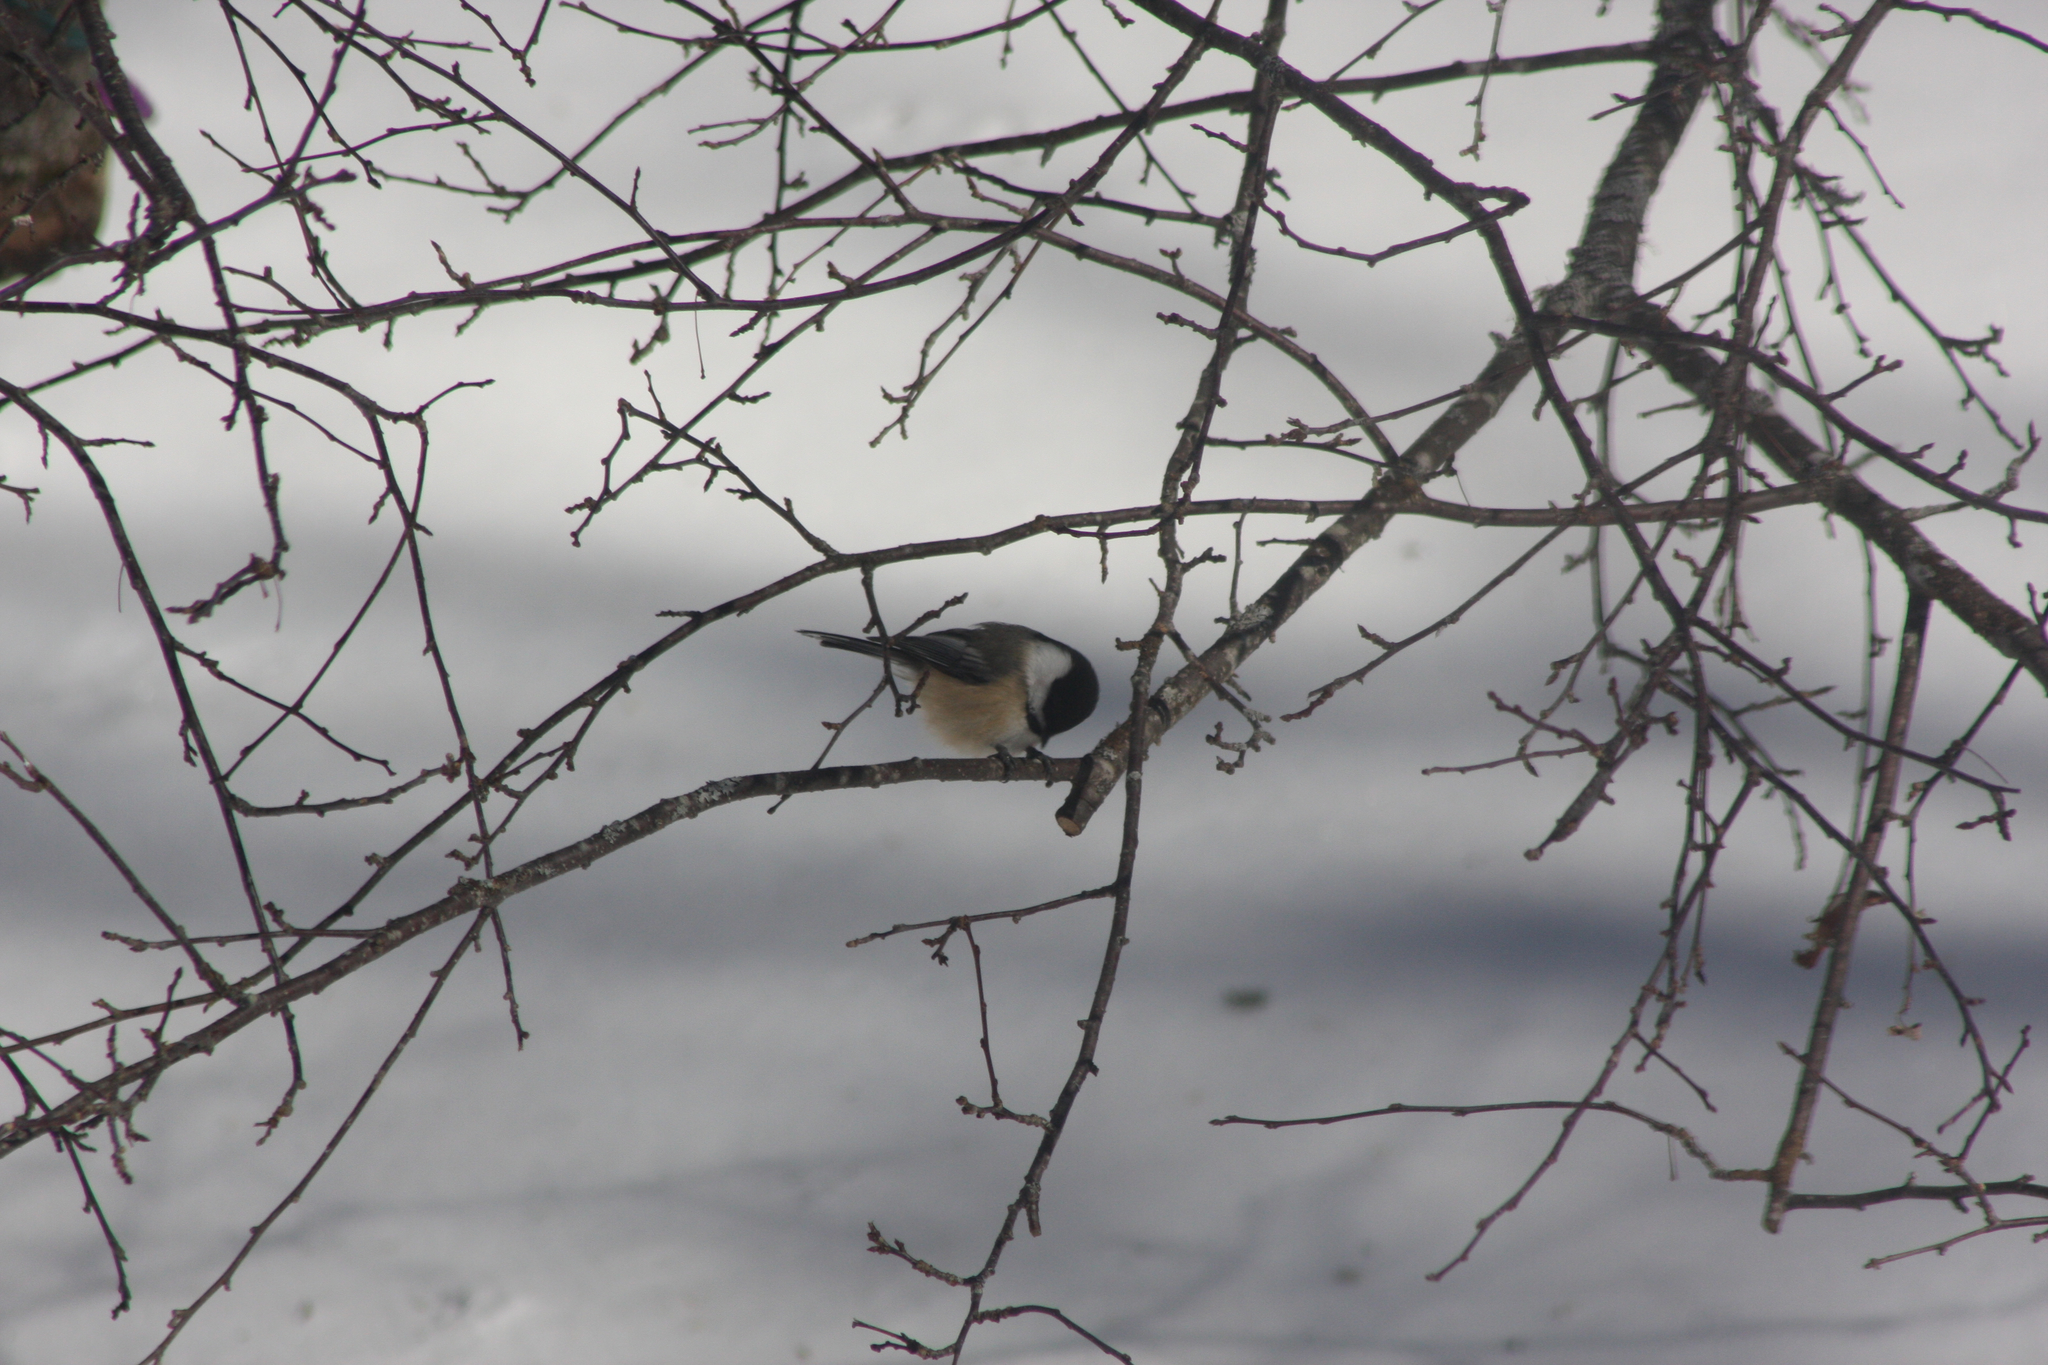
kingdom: Animalia
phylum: Chordata
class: Aves
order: Passeriformes
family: Paridae
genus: Poecile
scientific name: Poecile atricapillus
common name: Black-capped chickadee
